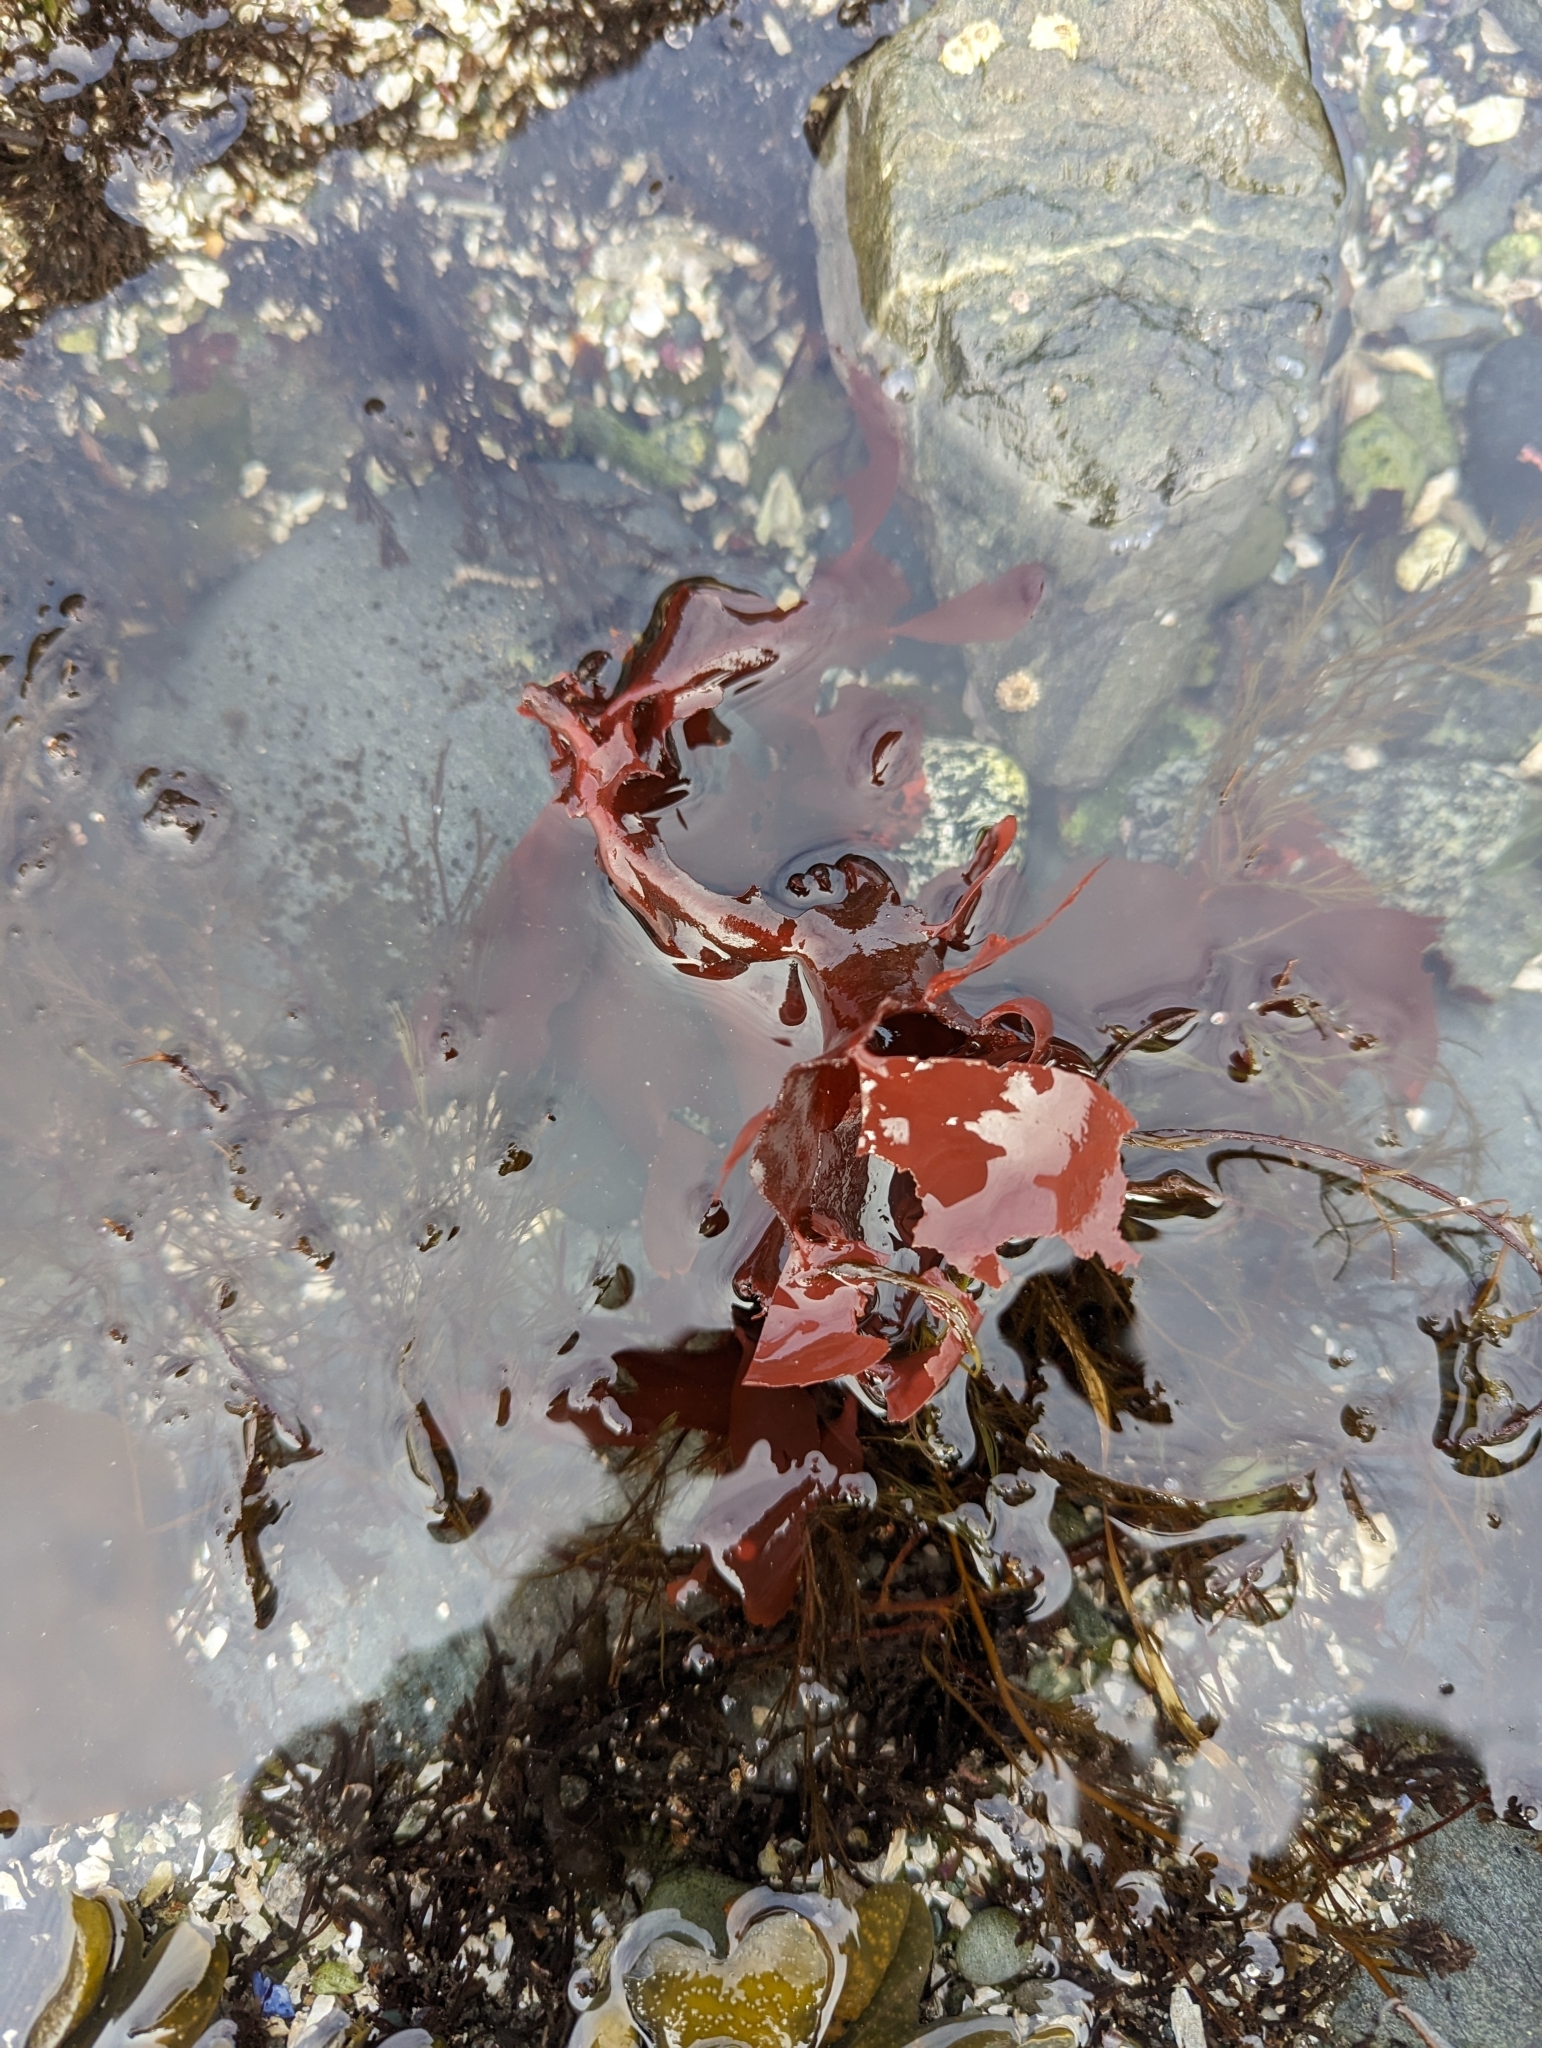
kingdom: Plantae
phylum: Rhodophyta
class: Florideophyceae
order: Gigartinales
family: Furcellariaceae
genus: Opuntiella
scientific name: Opuntiella californica
